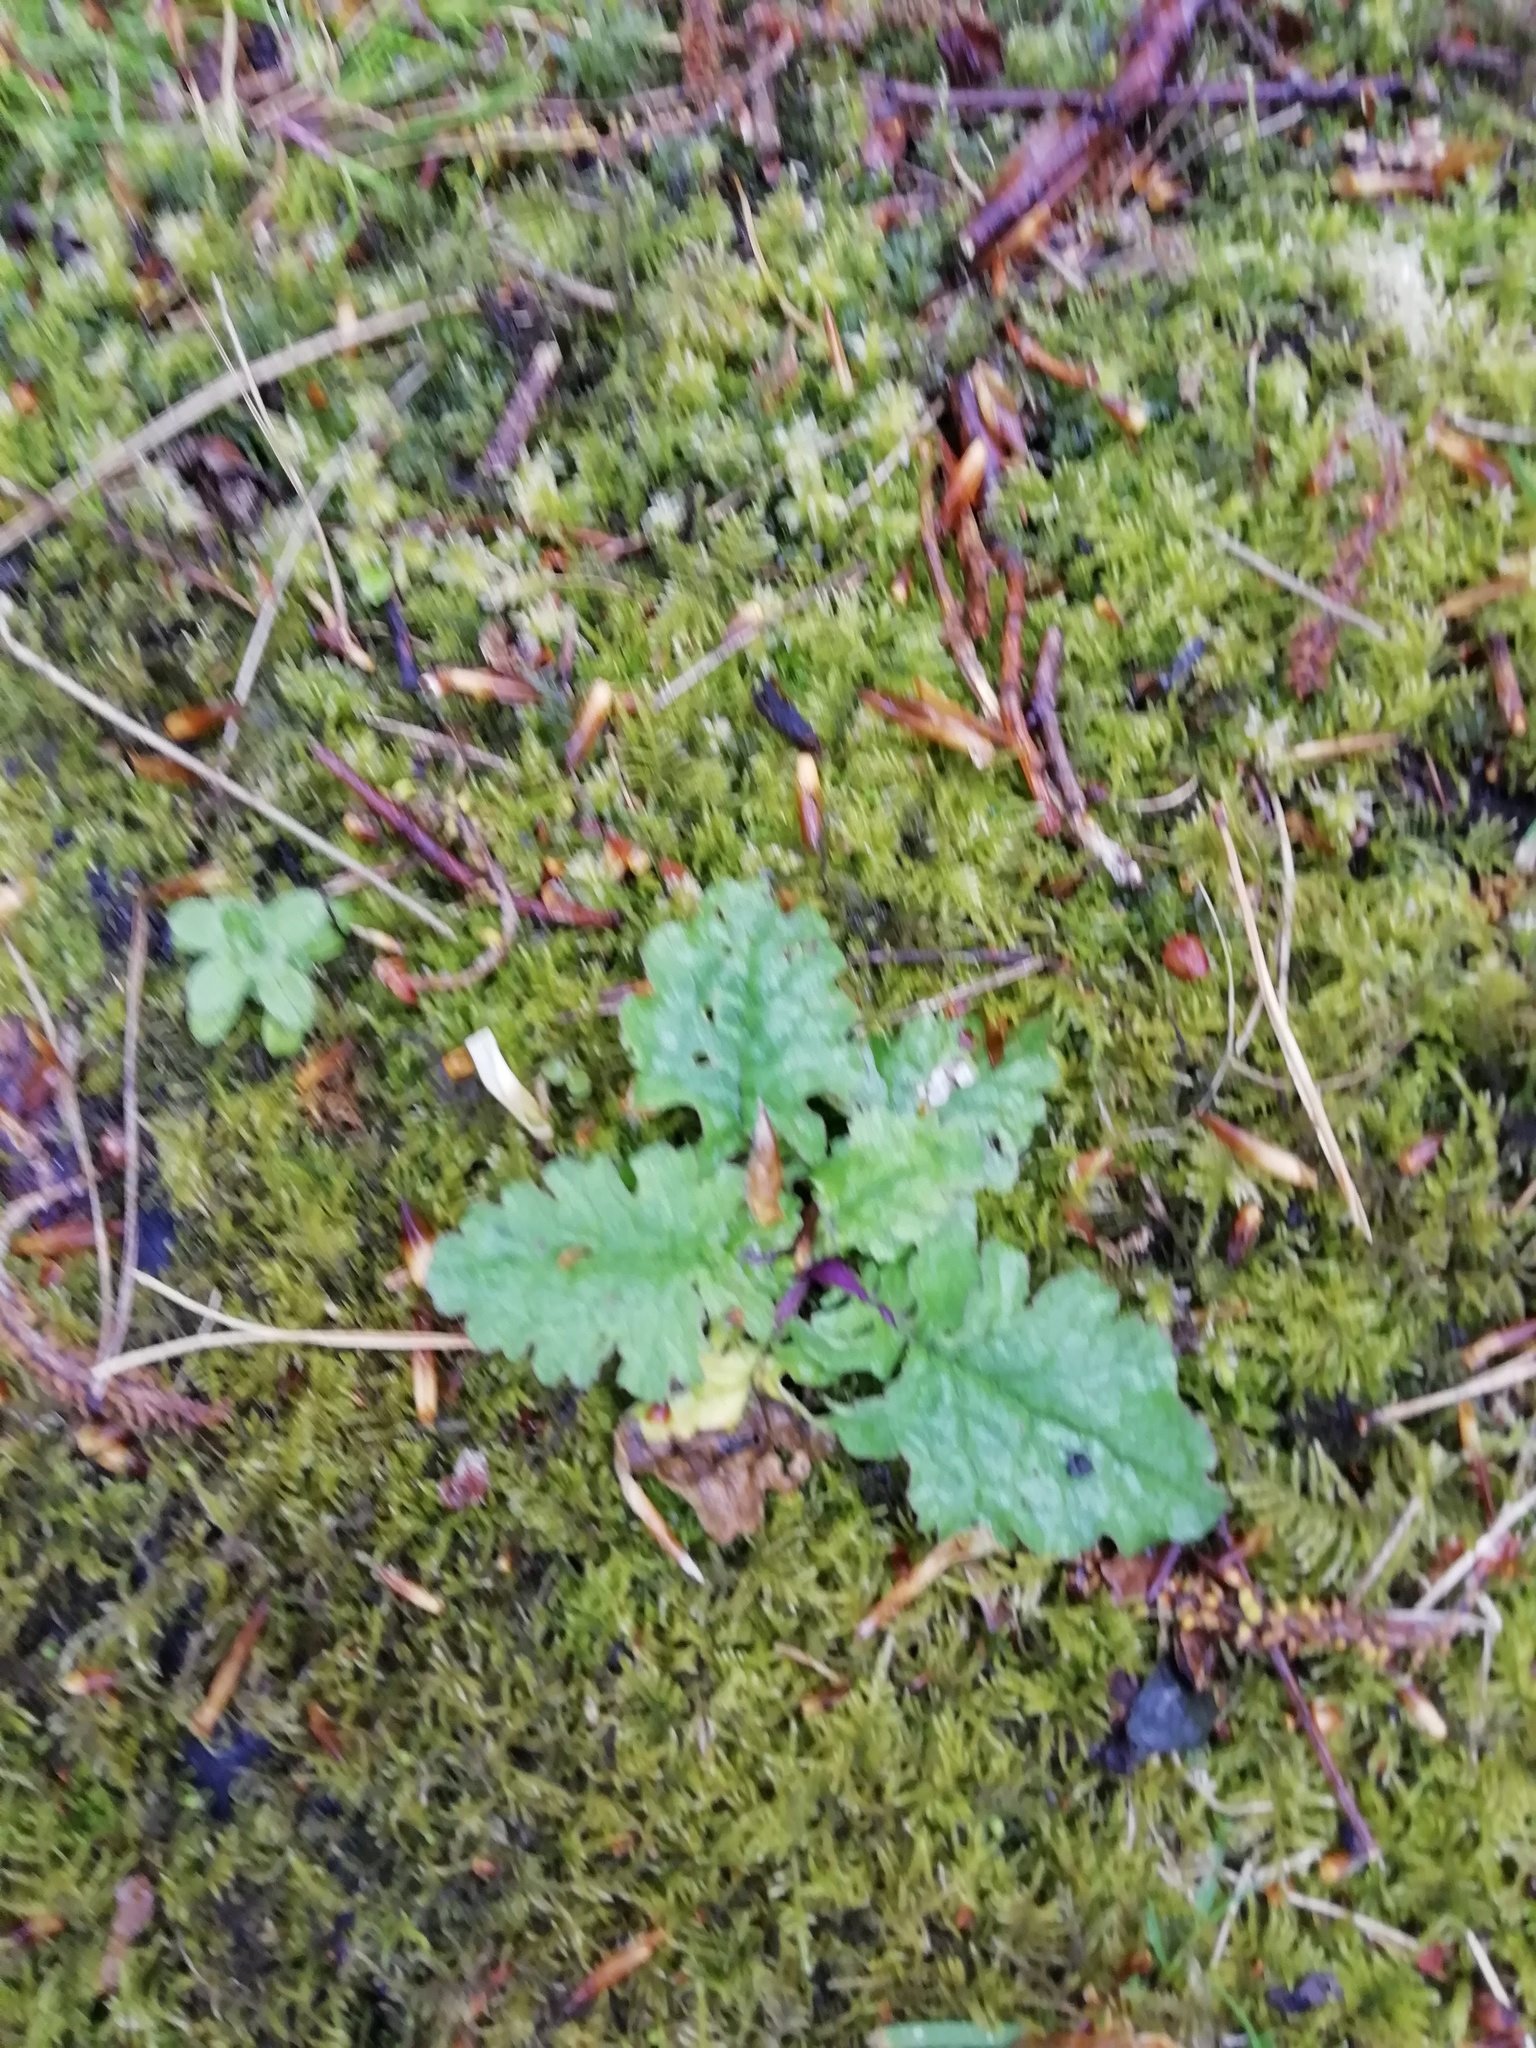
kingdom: Plantae
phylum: Tracheophyta
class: Magnoliopsida
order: Asterales
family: Asteraceae
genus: Jacobaea
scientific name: Jacobaea vulgaris
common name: Stinking willie
